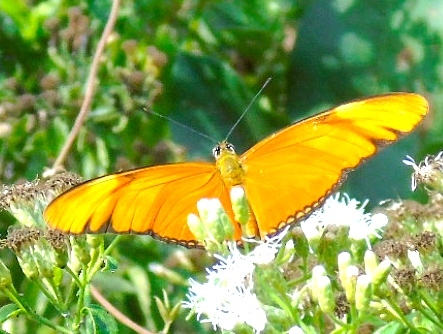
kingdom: Animalia
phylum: Arthropoda
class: Insecta
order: Lepidoptera
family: Nymphalidae
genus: Dryas
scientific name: Dryas iulia
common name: Flambeau
